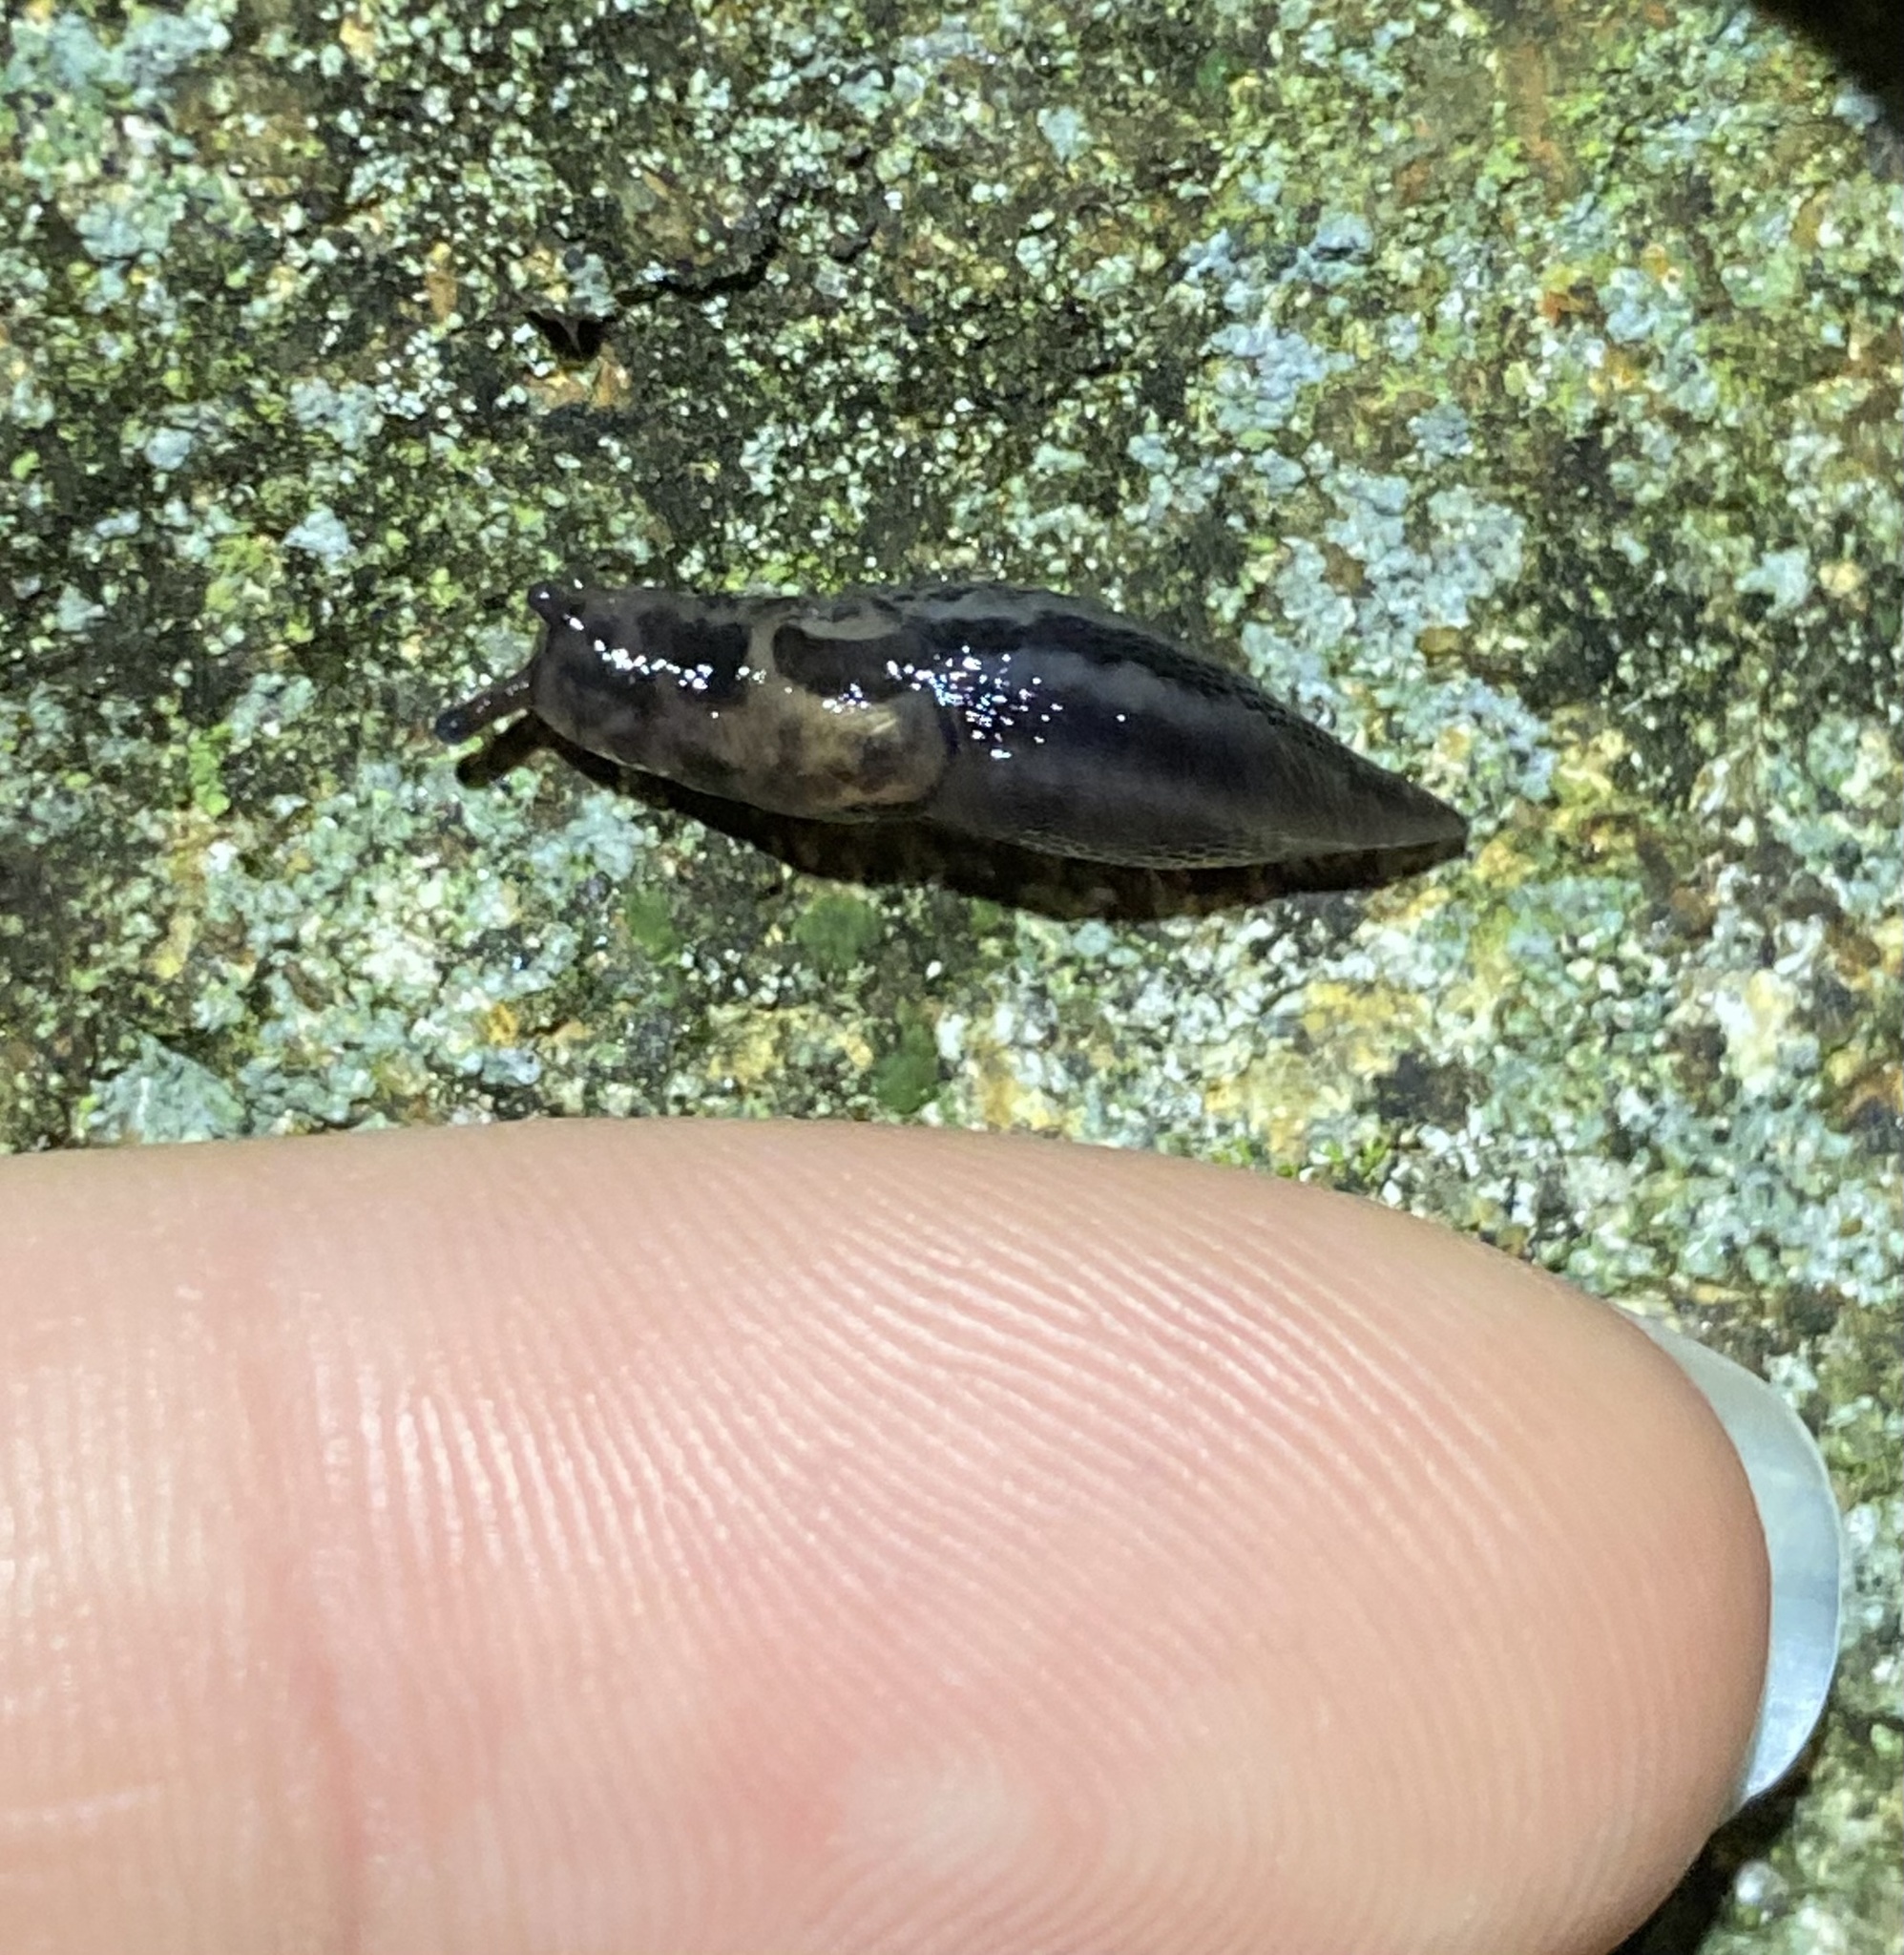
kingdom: Animalia
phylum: Mollusca
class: Gastropoda
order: Stylommatophora
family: Limacidae
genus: Limax
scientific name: Limax maximus
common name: Great grey slug
